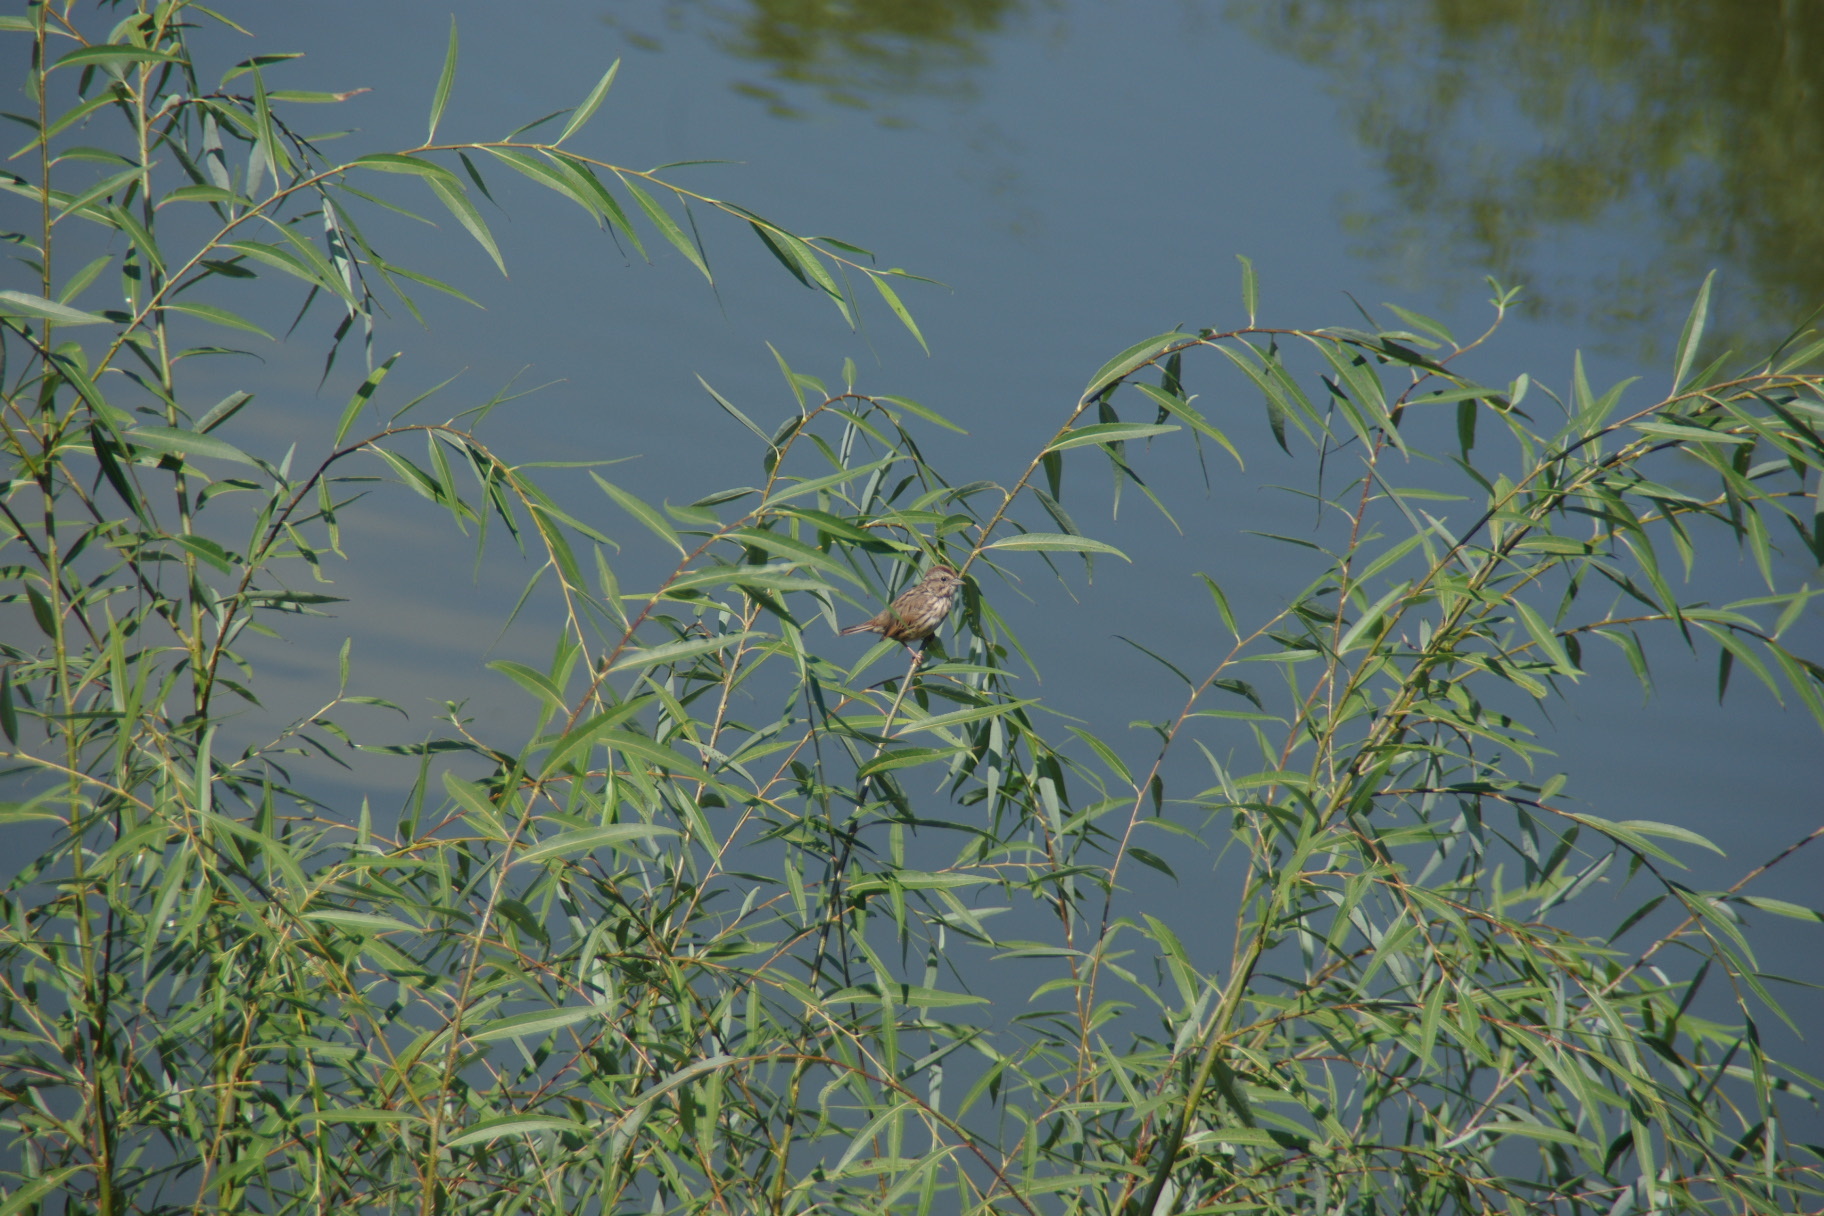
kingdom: Animalia
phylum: Chordata
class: Aves
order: Passeriformes
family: Passerellidae
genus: Melospiza
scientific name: Melospiza melodia
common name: Song sparrow
